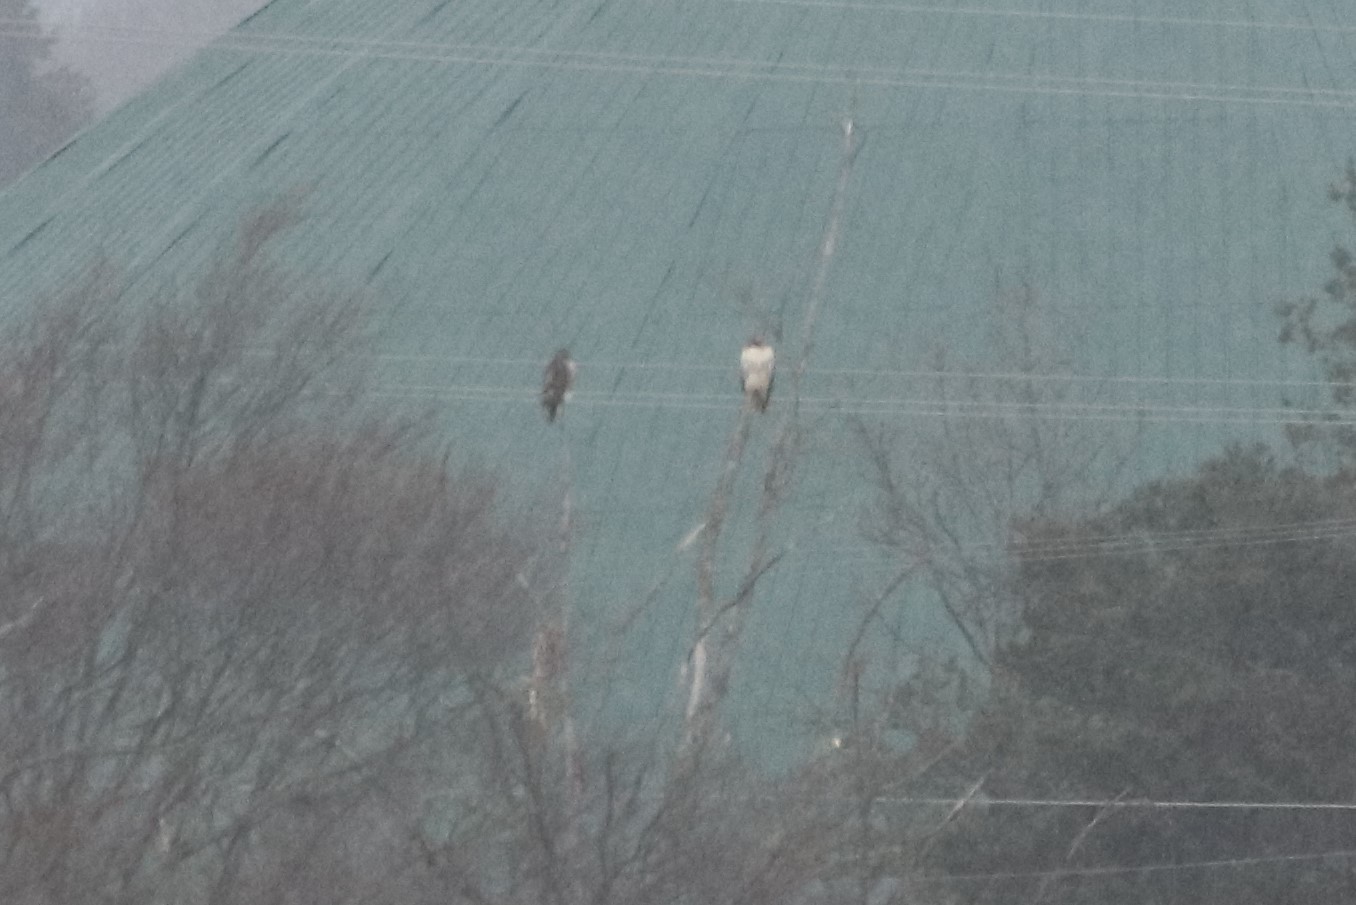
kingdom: Animalia
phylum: Chordata
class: Aves
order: Accipitriformes
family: Accipitridae
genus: Buteo
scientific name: Buteo jamaicensis
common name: Red-tailed hawk
